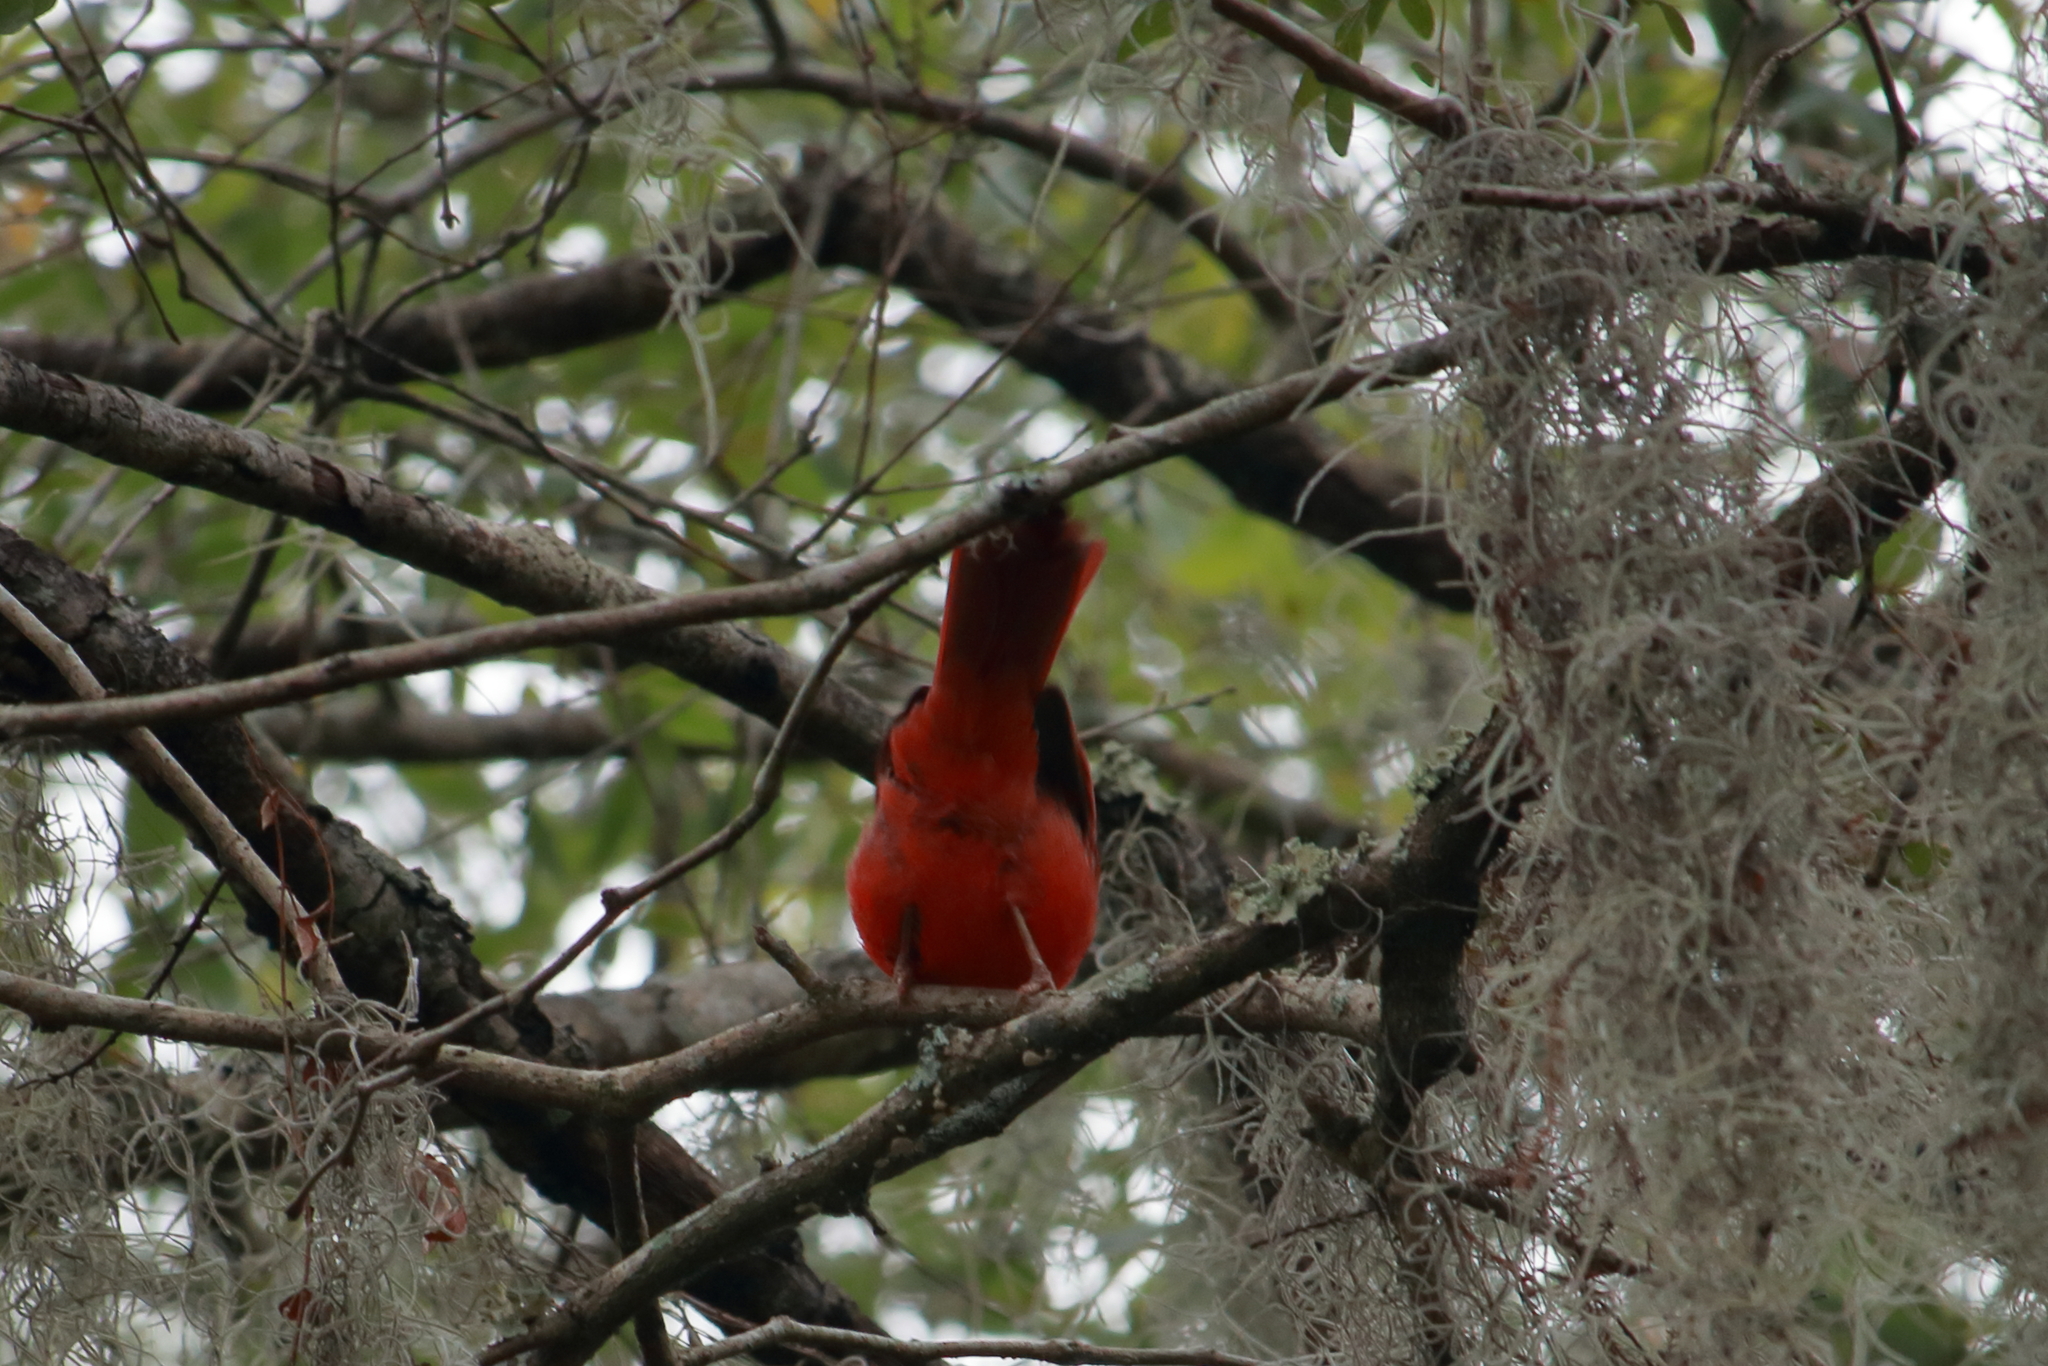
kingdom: Animalia
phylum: Chordata
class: Aves
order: Passeriformes
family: Cardinalidae
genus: Cardinalis
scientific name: Cardinalis cardinalis
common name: Northern cardinal
